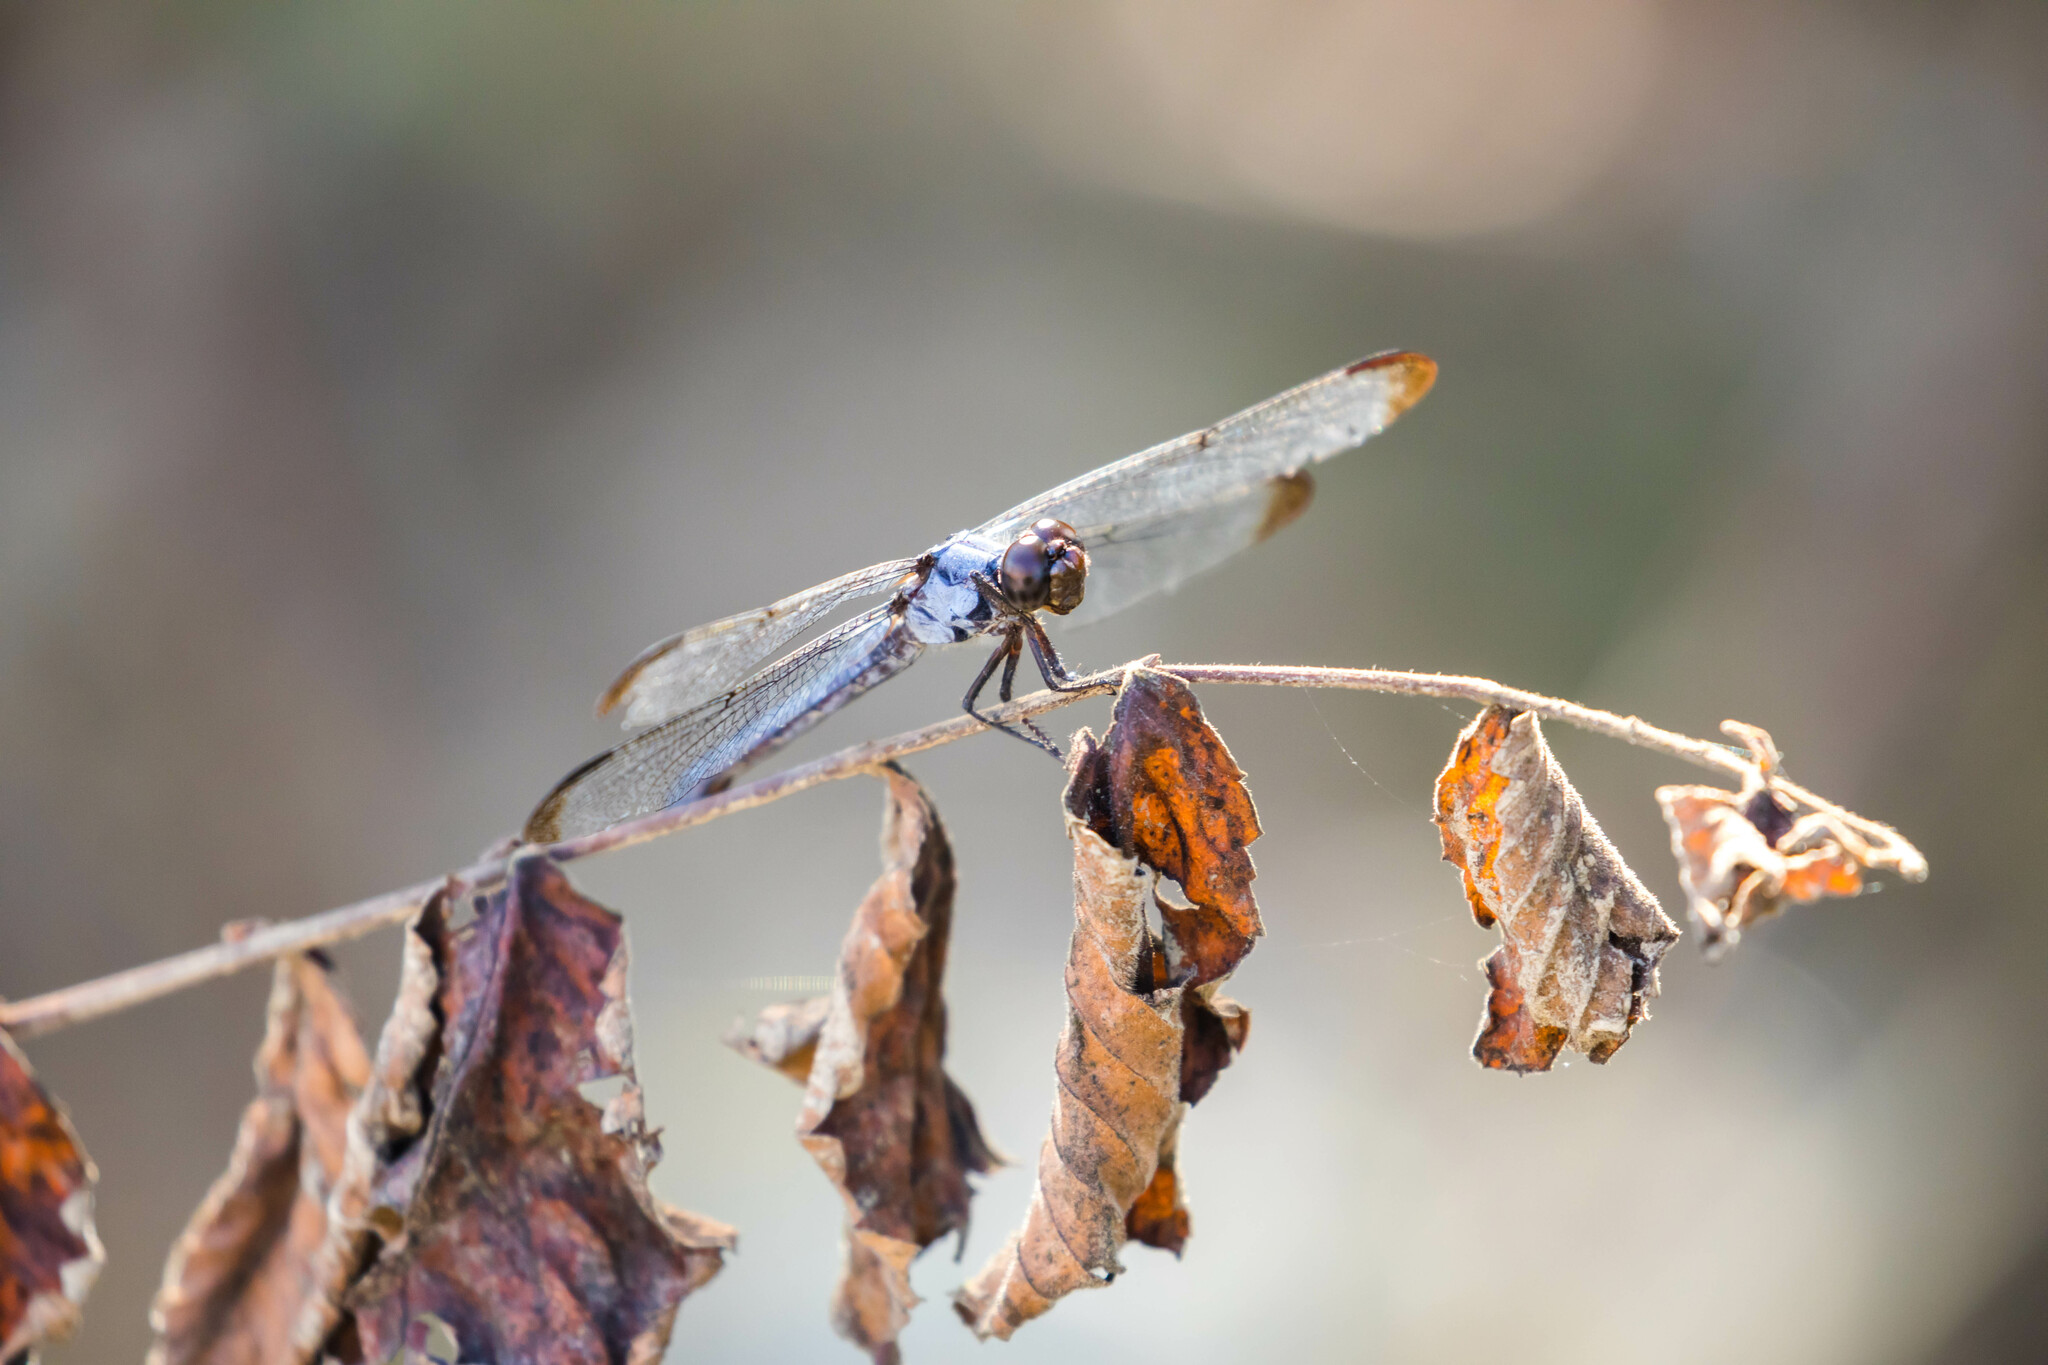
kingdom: Animalia
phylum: Arthropoda
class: Insecta
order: Odonata
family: Libellulidae
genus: Libellula
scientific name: Libellula incesta
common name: Slaty skimmer
